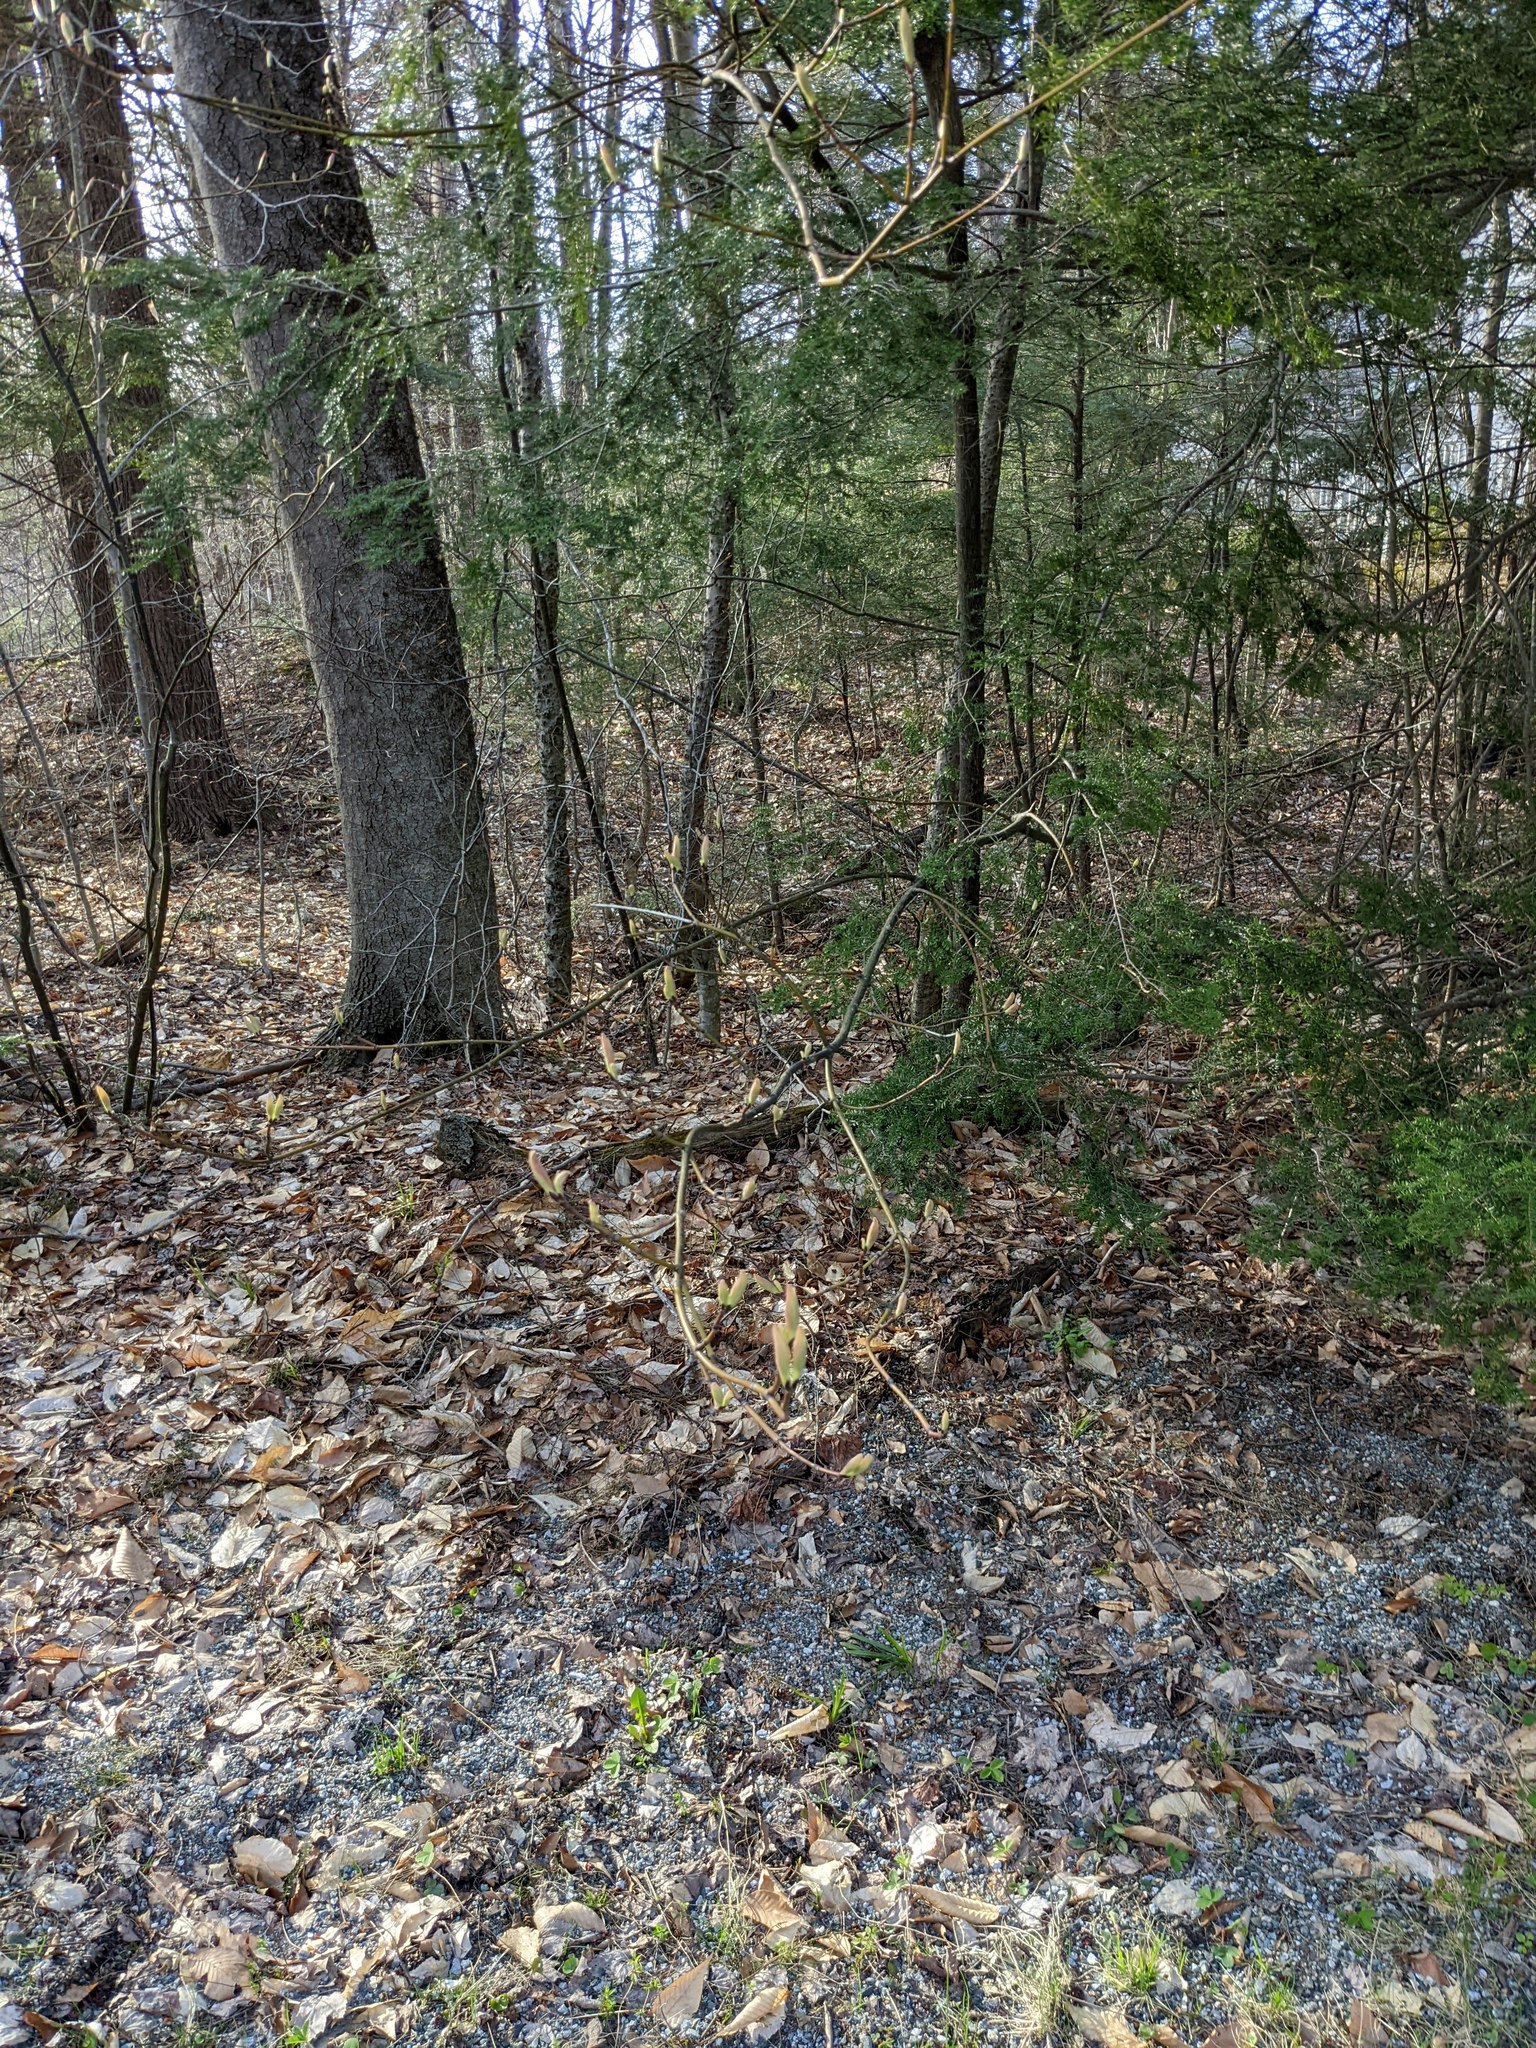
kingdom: Plantae
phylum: Tracheophyta
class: Magnoliopsida
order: Sapindales
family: Sapindaceae
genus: Acer
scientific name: Acer pensylvanicum
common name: Moosewood
